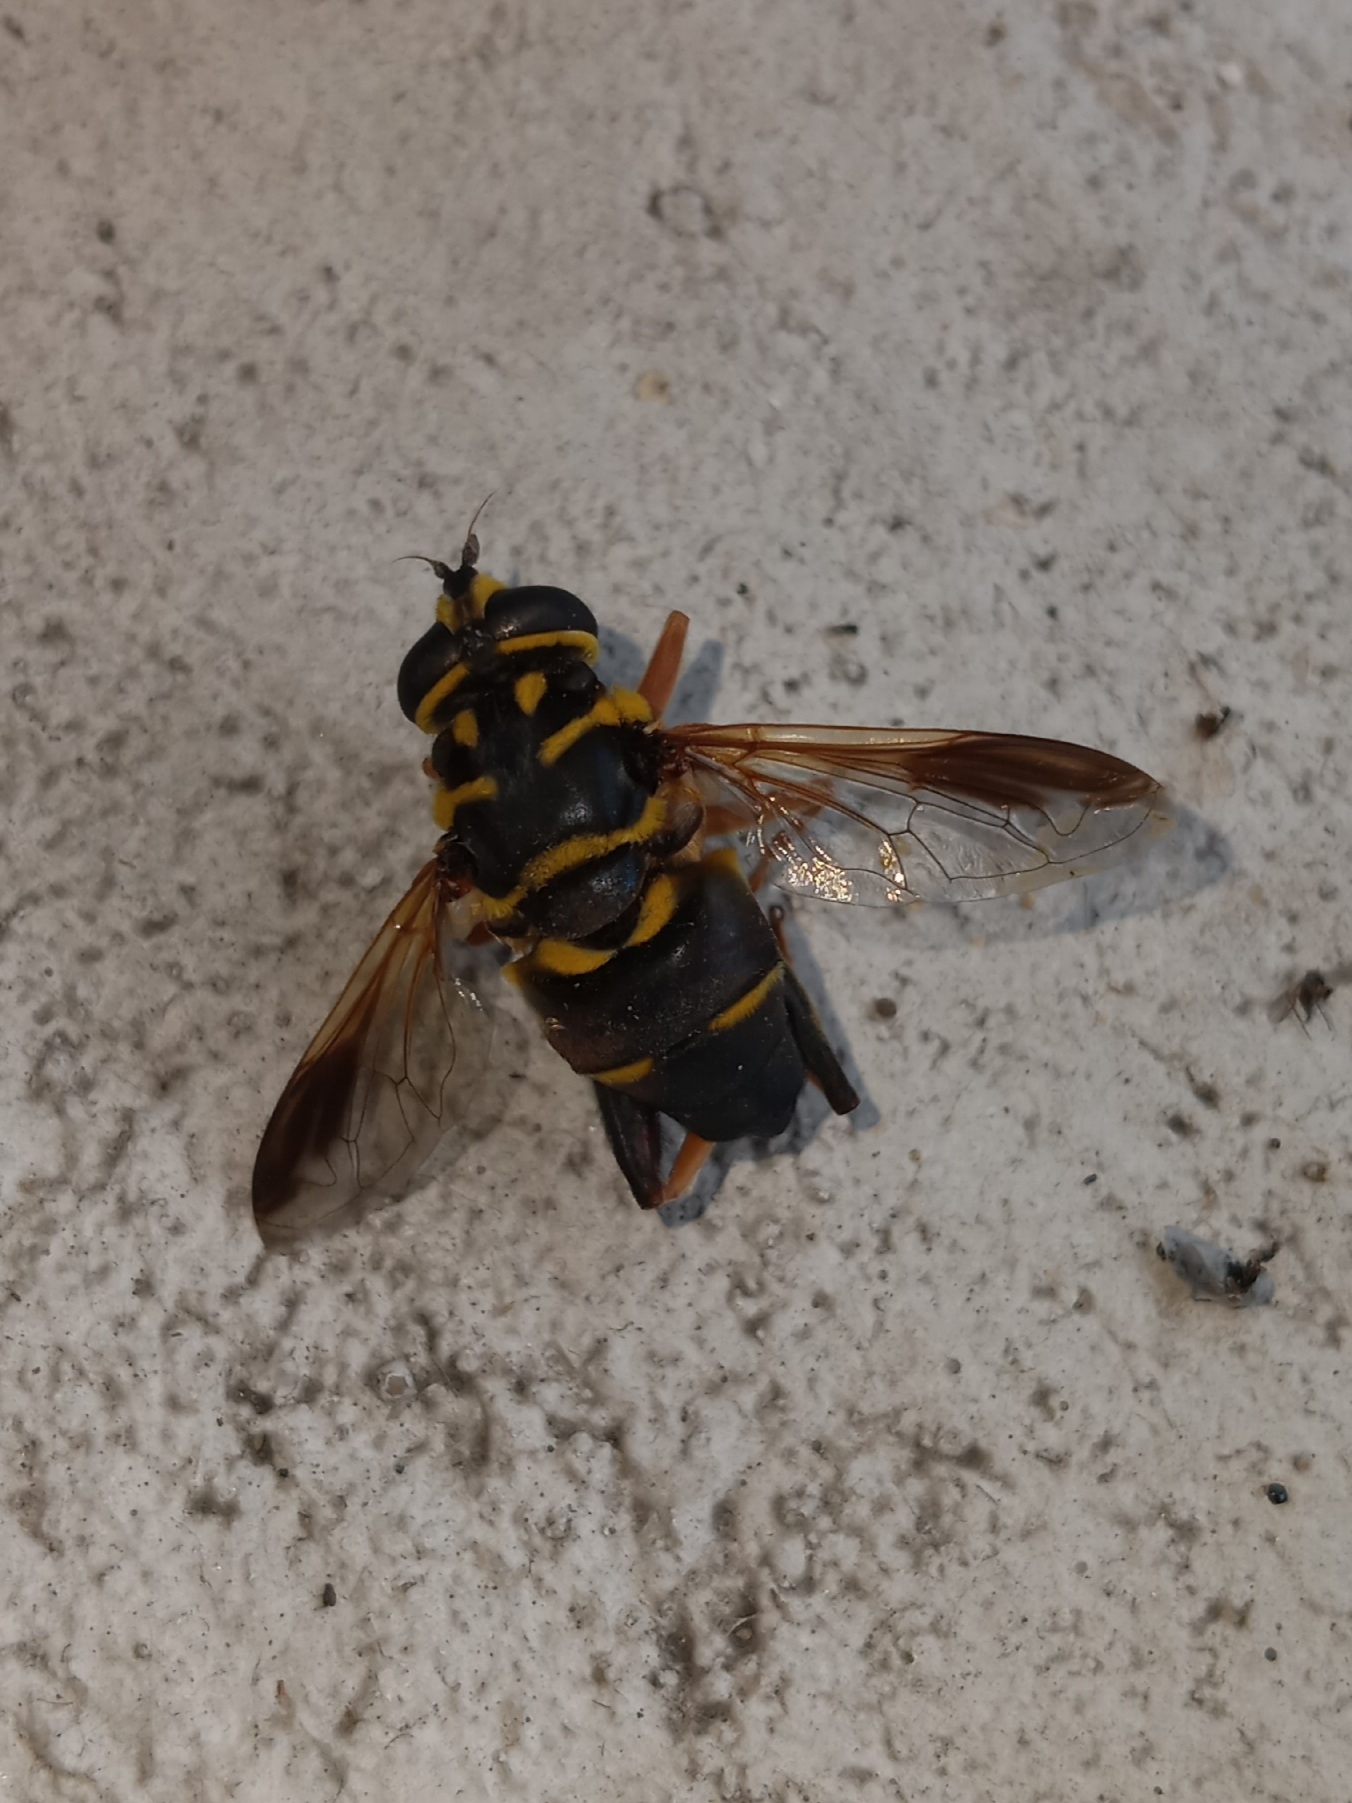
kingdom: Animalia
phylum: Arthropoda
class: Insecta
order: Diptera
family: Syrphidae
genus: Meromacrus
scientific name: Meromacrus acutus
